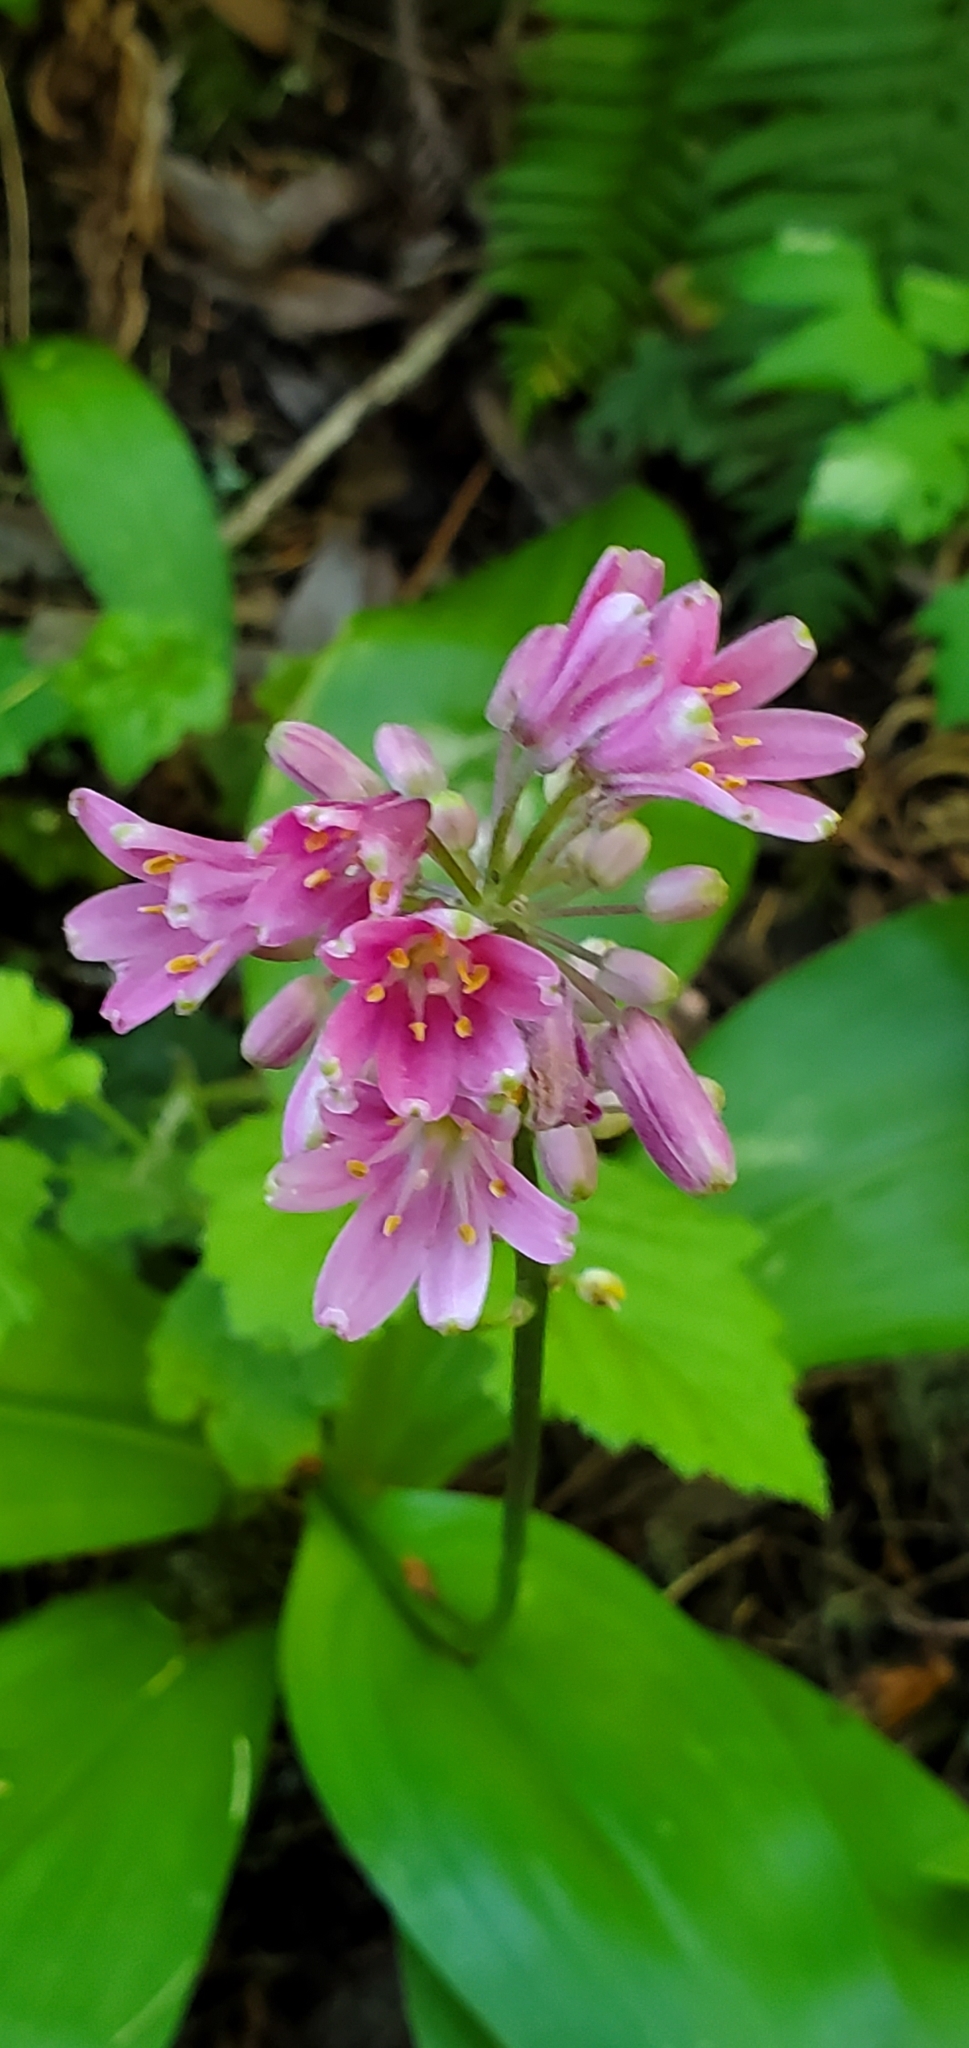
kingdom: Plantae
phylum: Tracheophyta
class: Liliopsida
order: Liliales
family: Liliaceae
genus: Clintonia
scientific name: Clintonia andrewsiana
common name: Red clintonia
